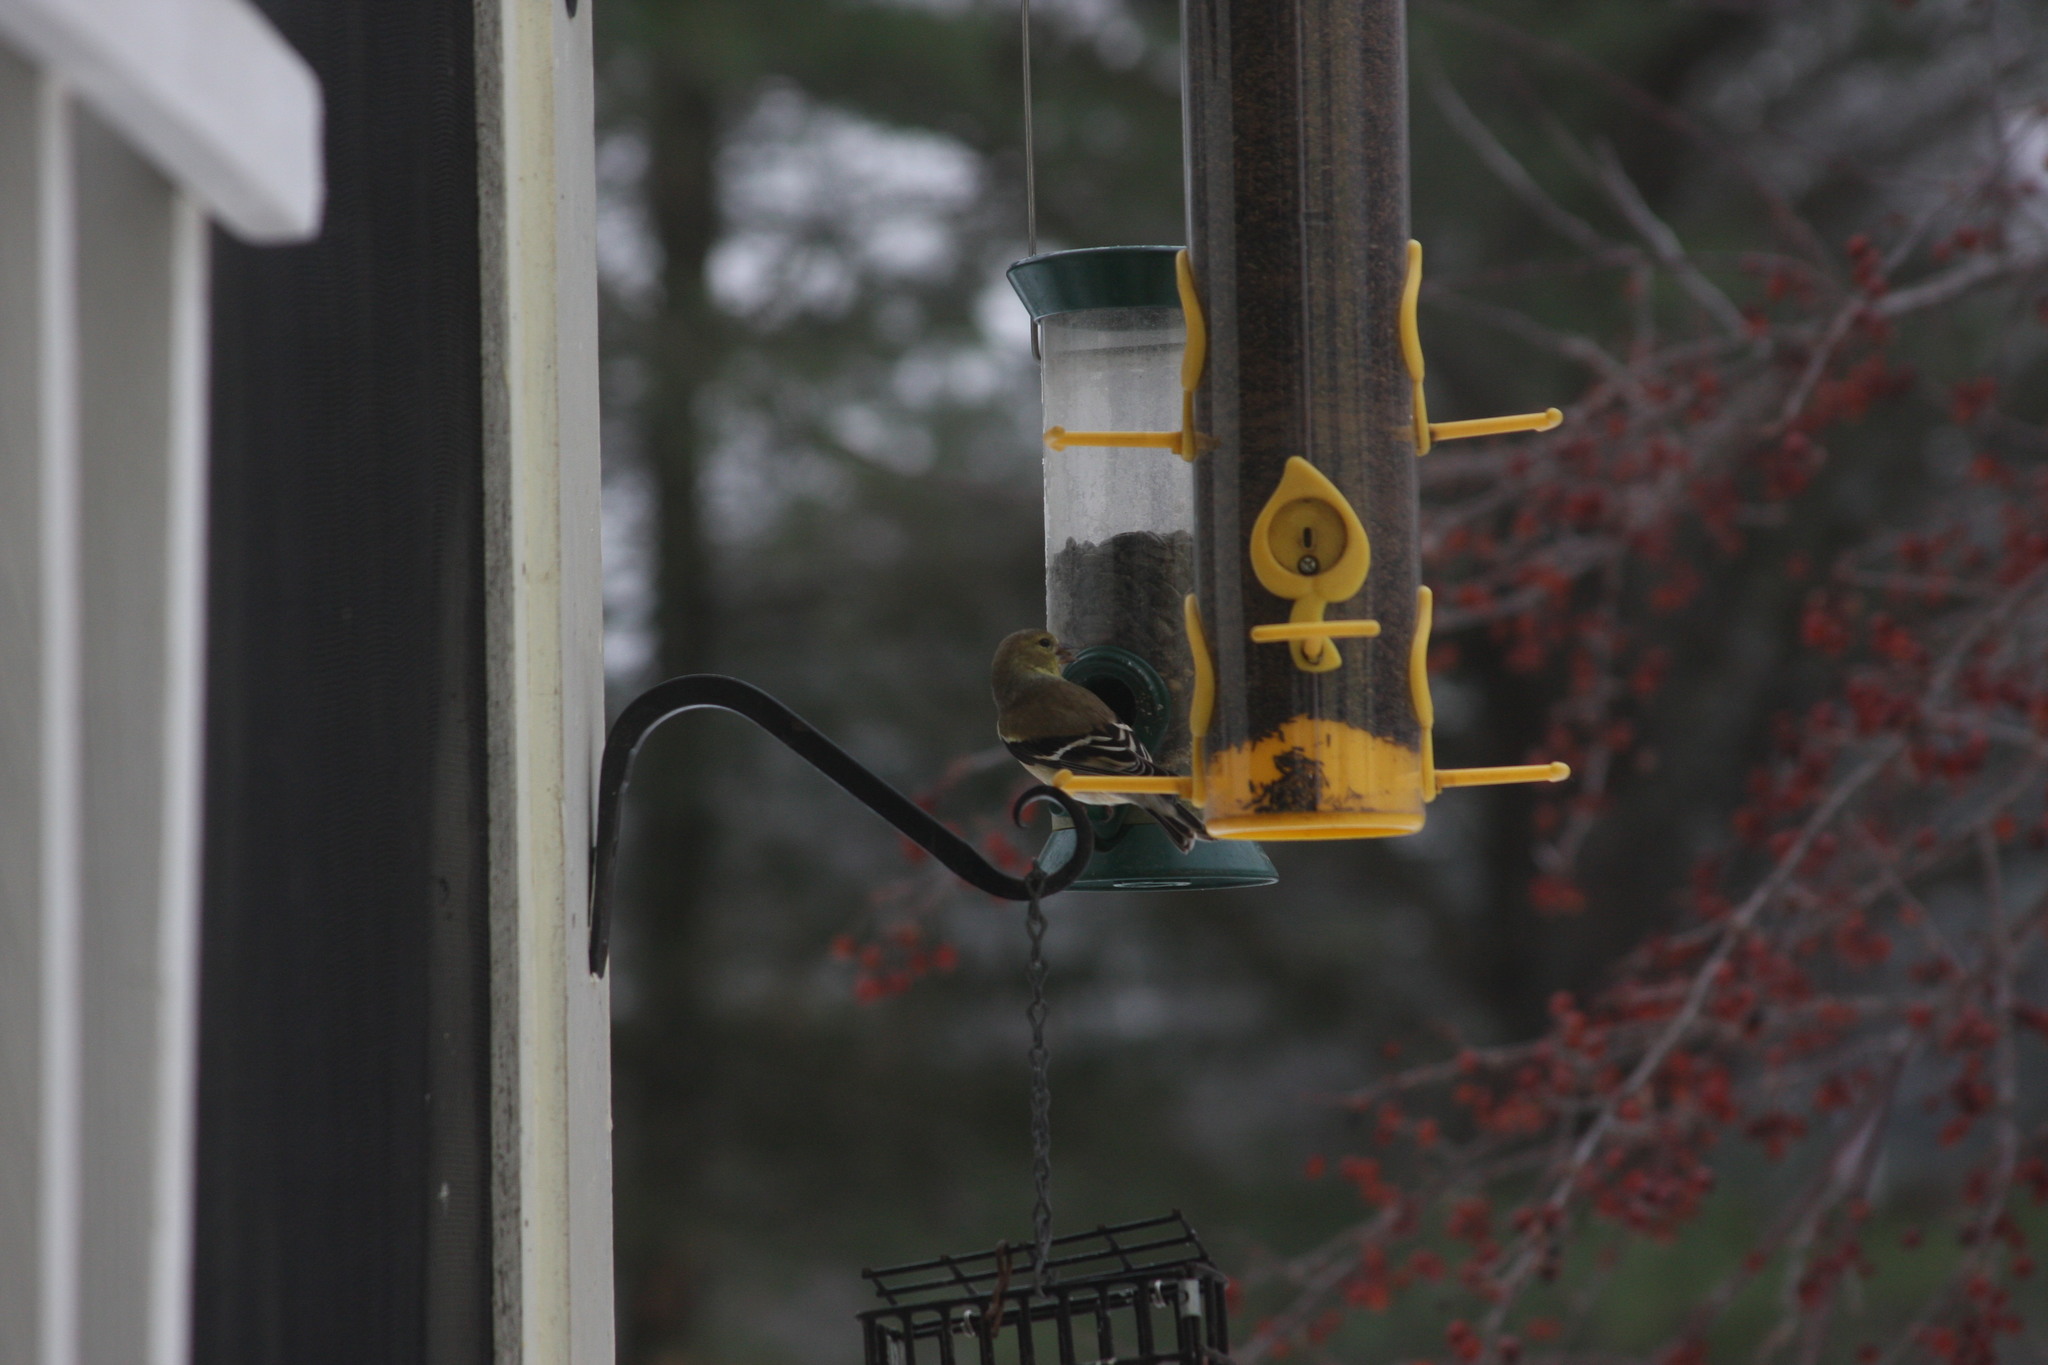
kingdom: Animalia
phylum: Chordata
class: Aves
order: Passeriformes
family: Fringillidae
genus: Spinus
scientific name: Spinus tristis
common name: American goldfinch
